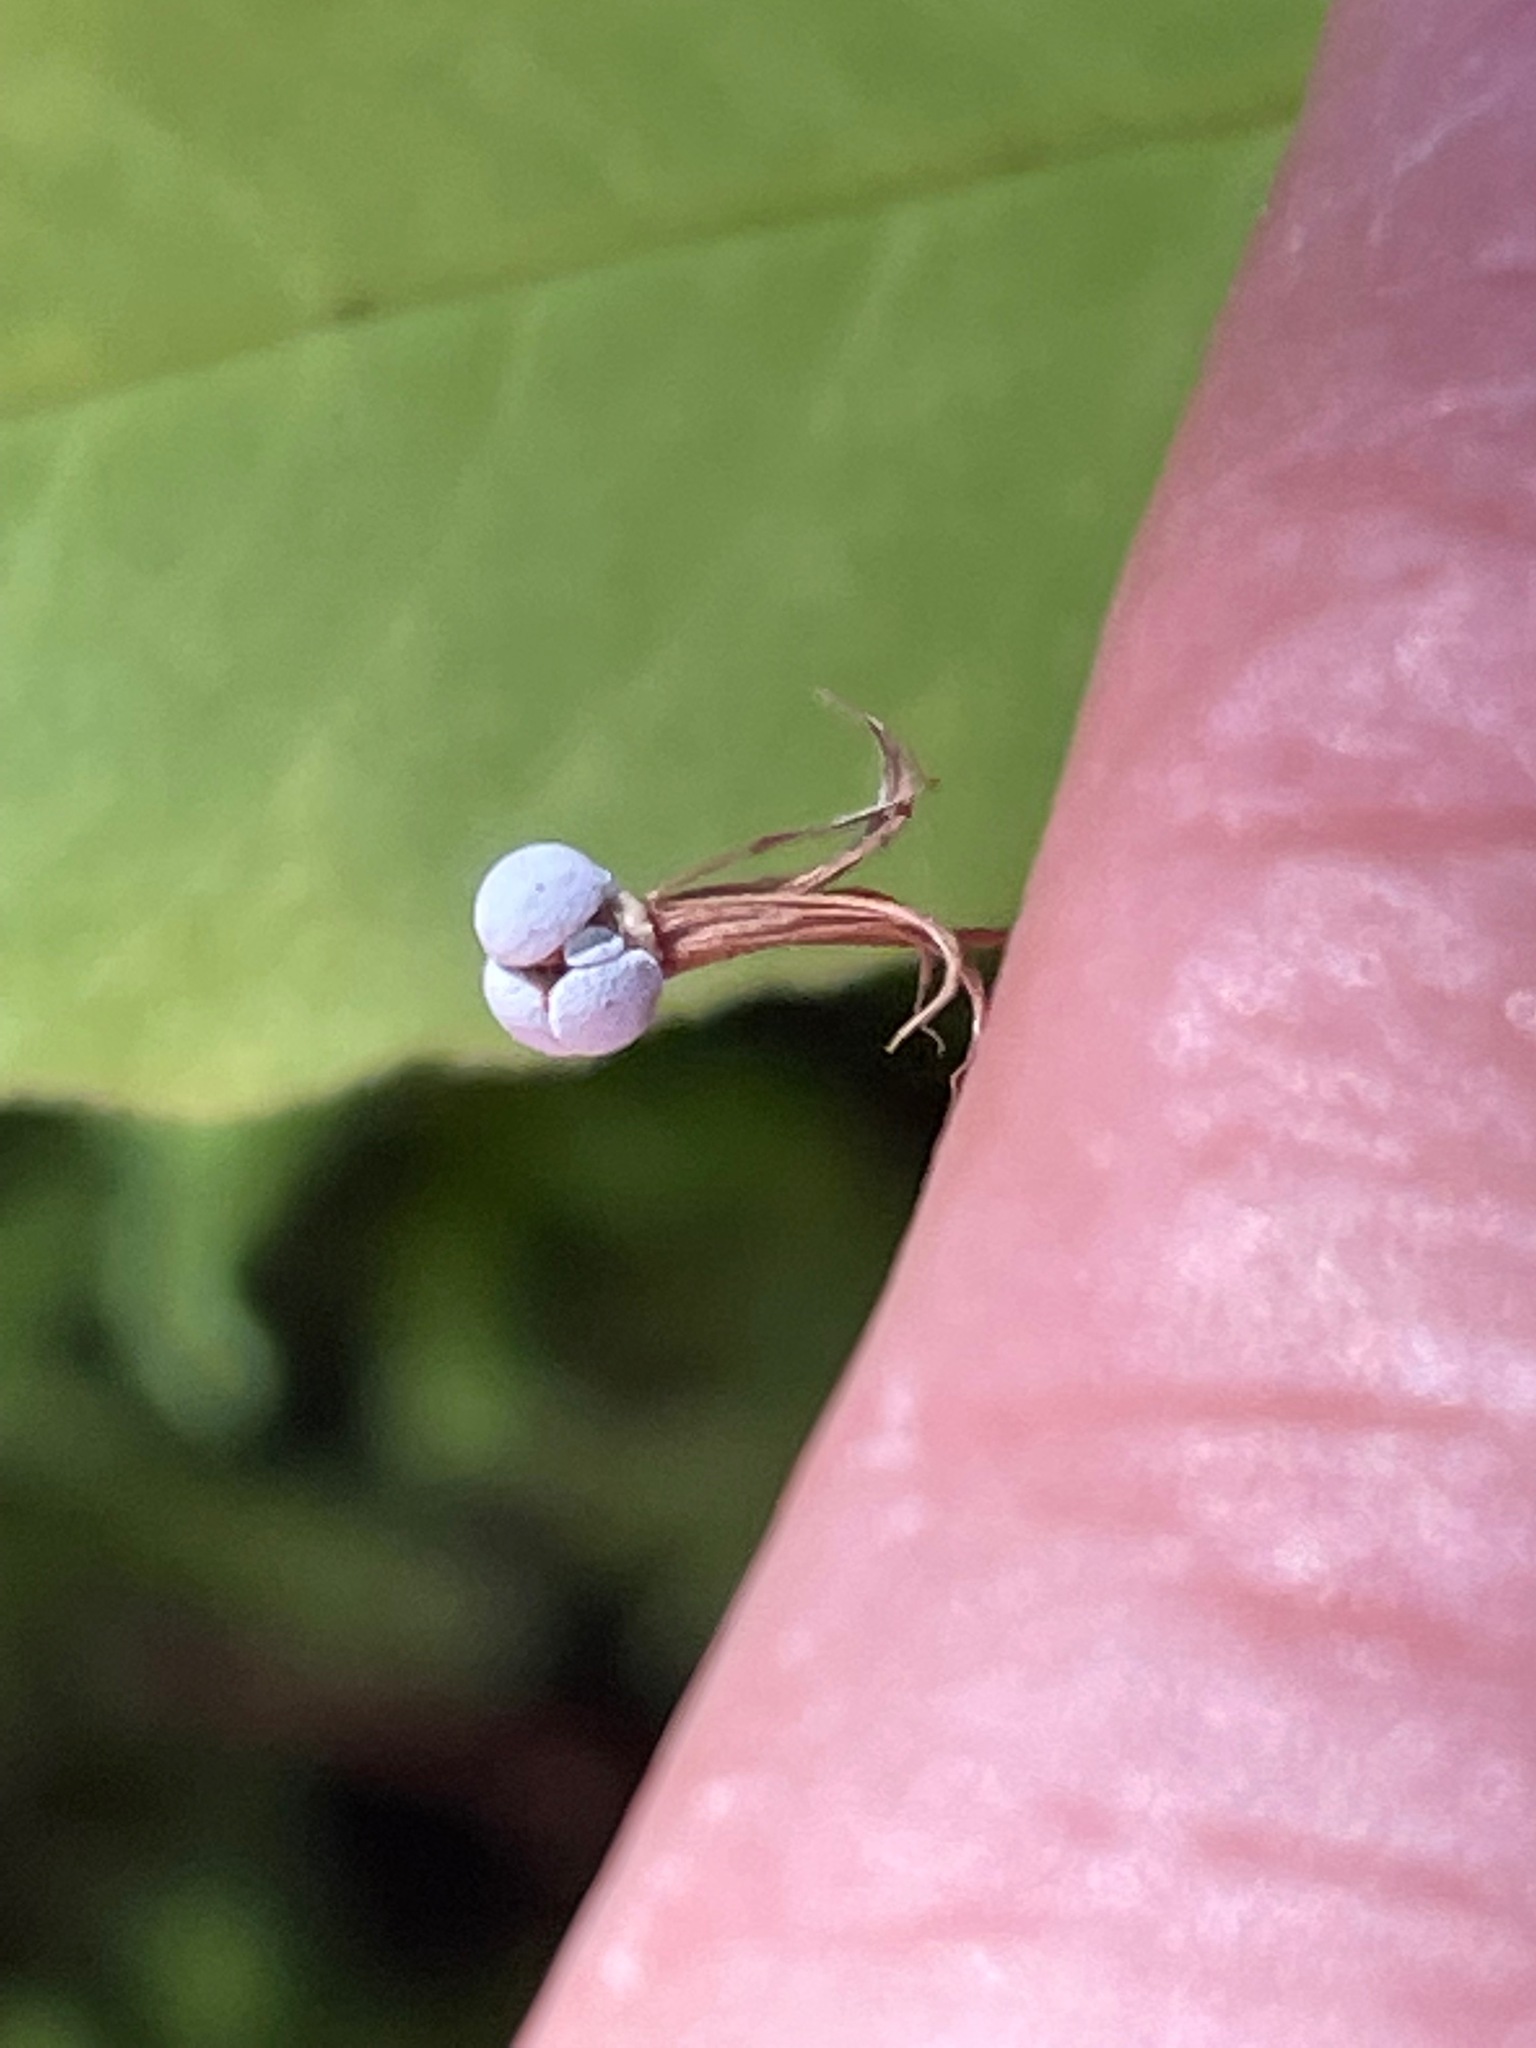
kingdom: Plantae
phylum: Tracheophyta
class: Magnoliopsida
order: Ericales
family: Primulaceae
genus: Lysimachia
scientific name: Lysimachia borealis
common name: American starflower
